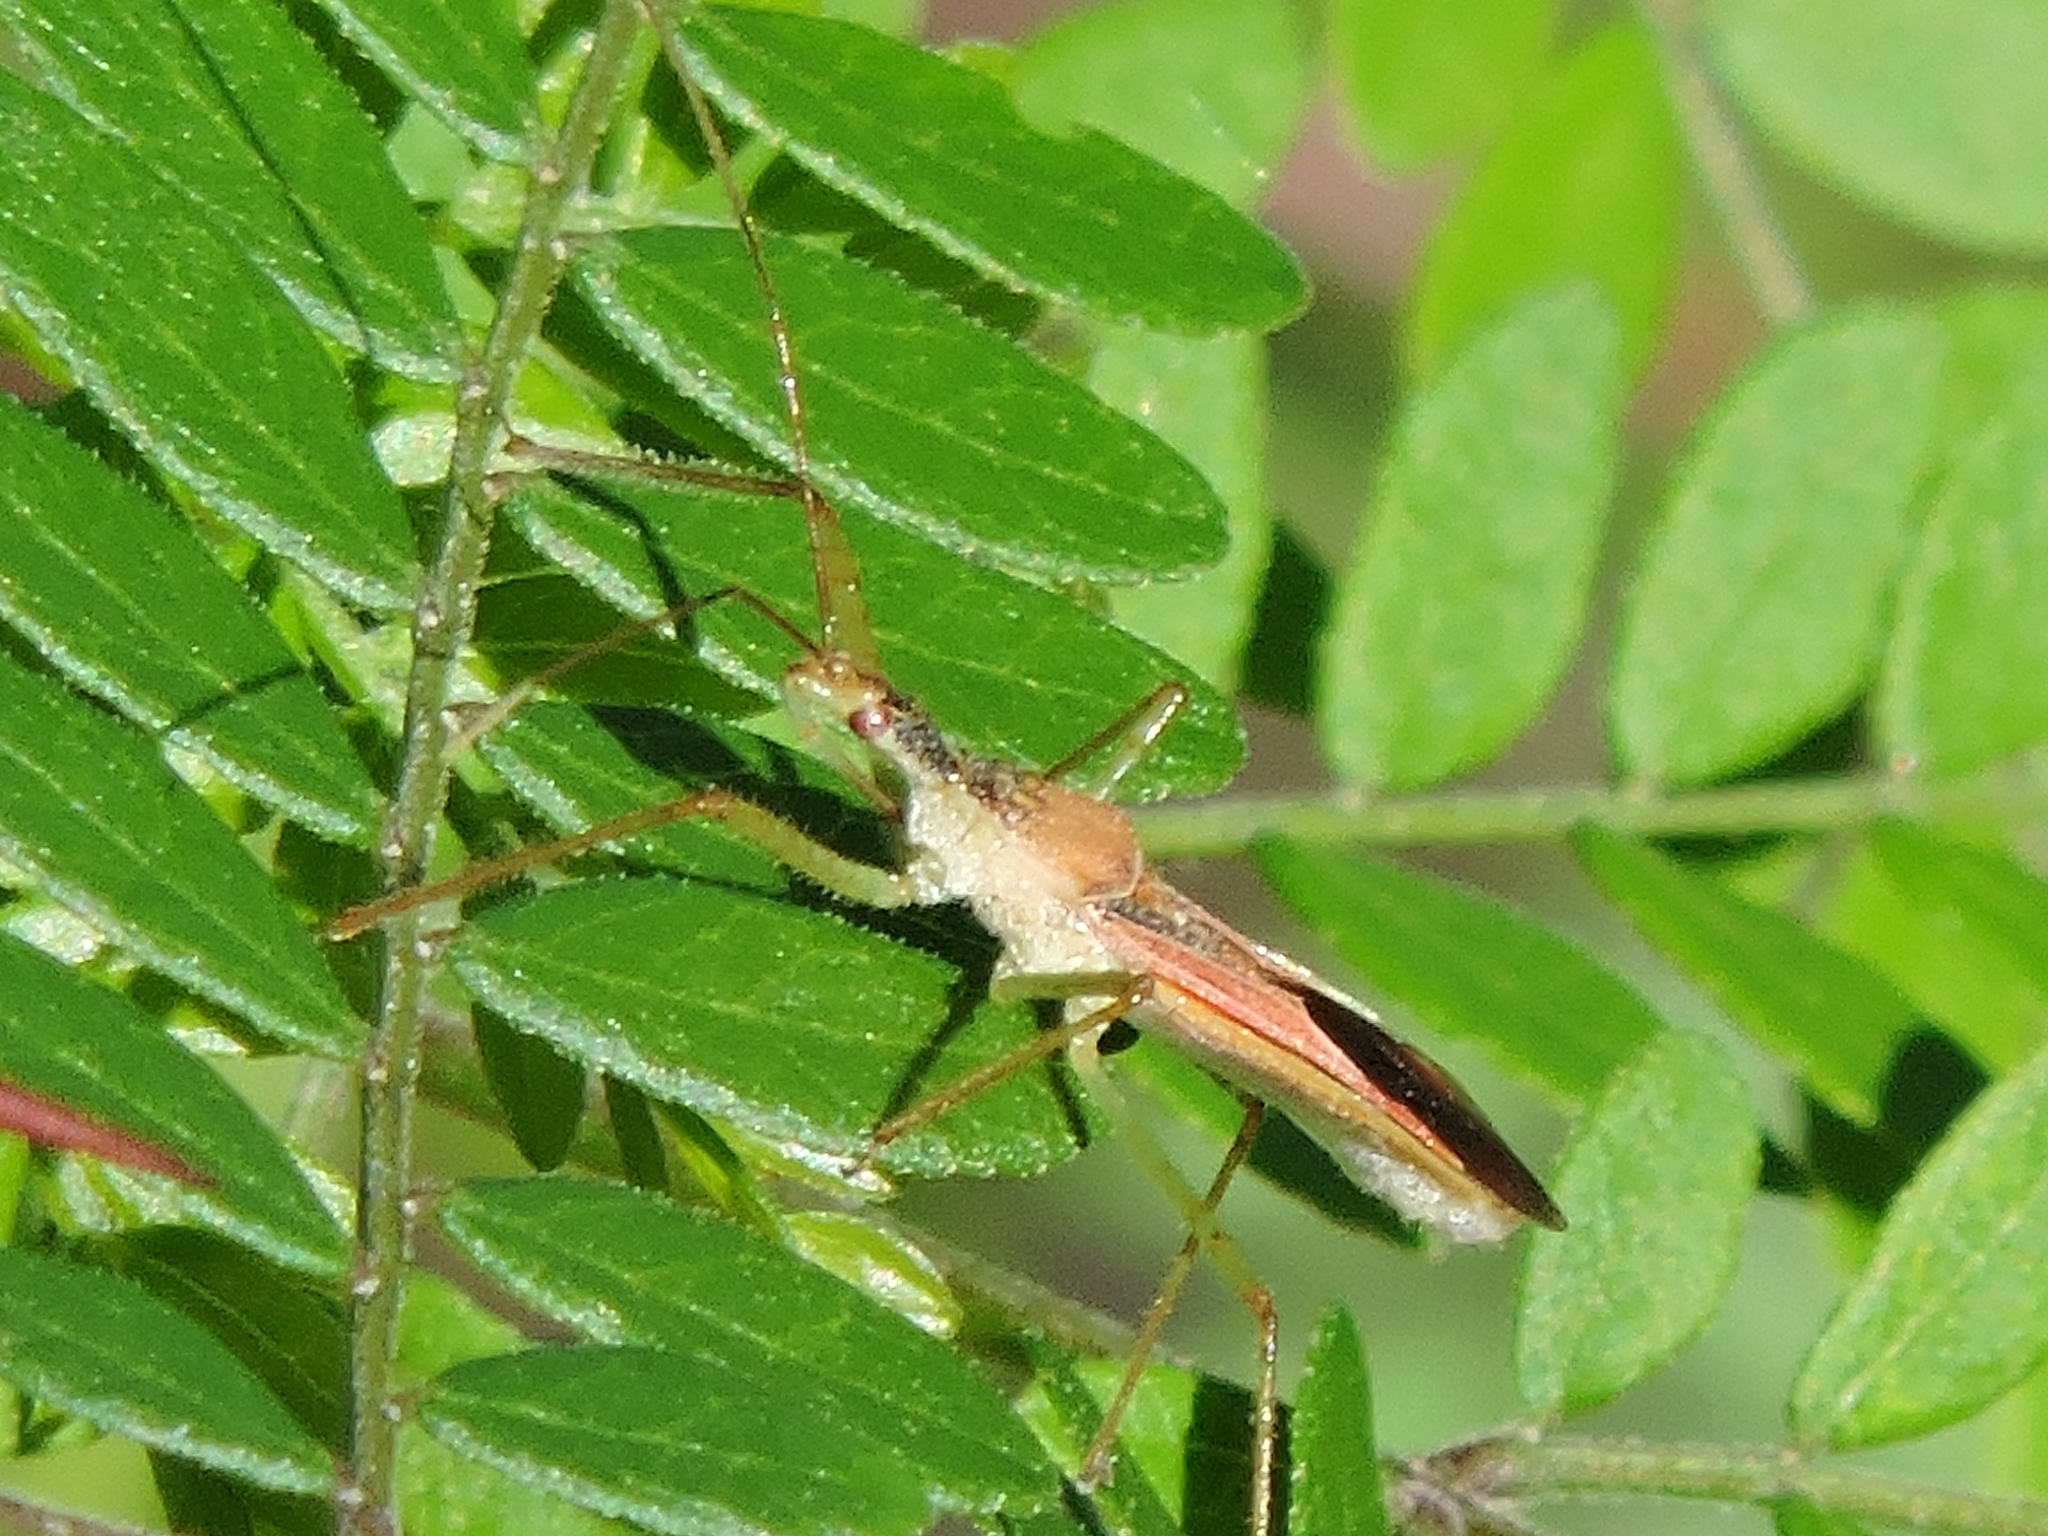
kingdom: Animalia
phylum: Arthropoda
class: Insecta
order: Hemiptera
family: Reduviidae
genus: Zelus
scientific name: Zelus renardii
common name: Assassin bug
